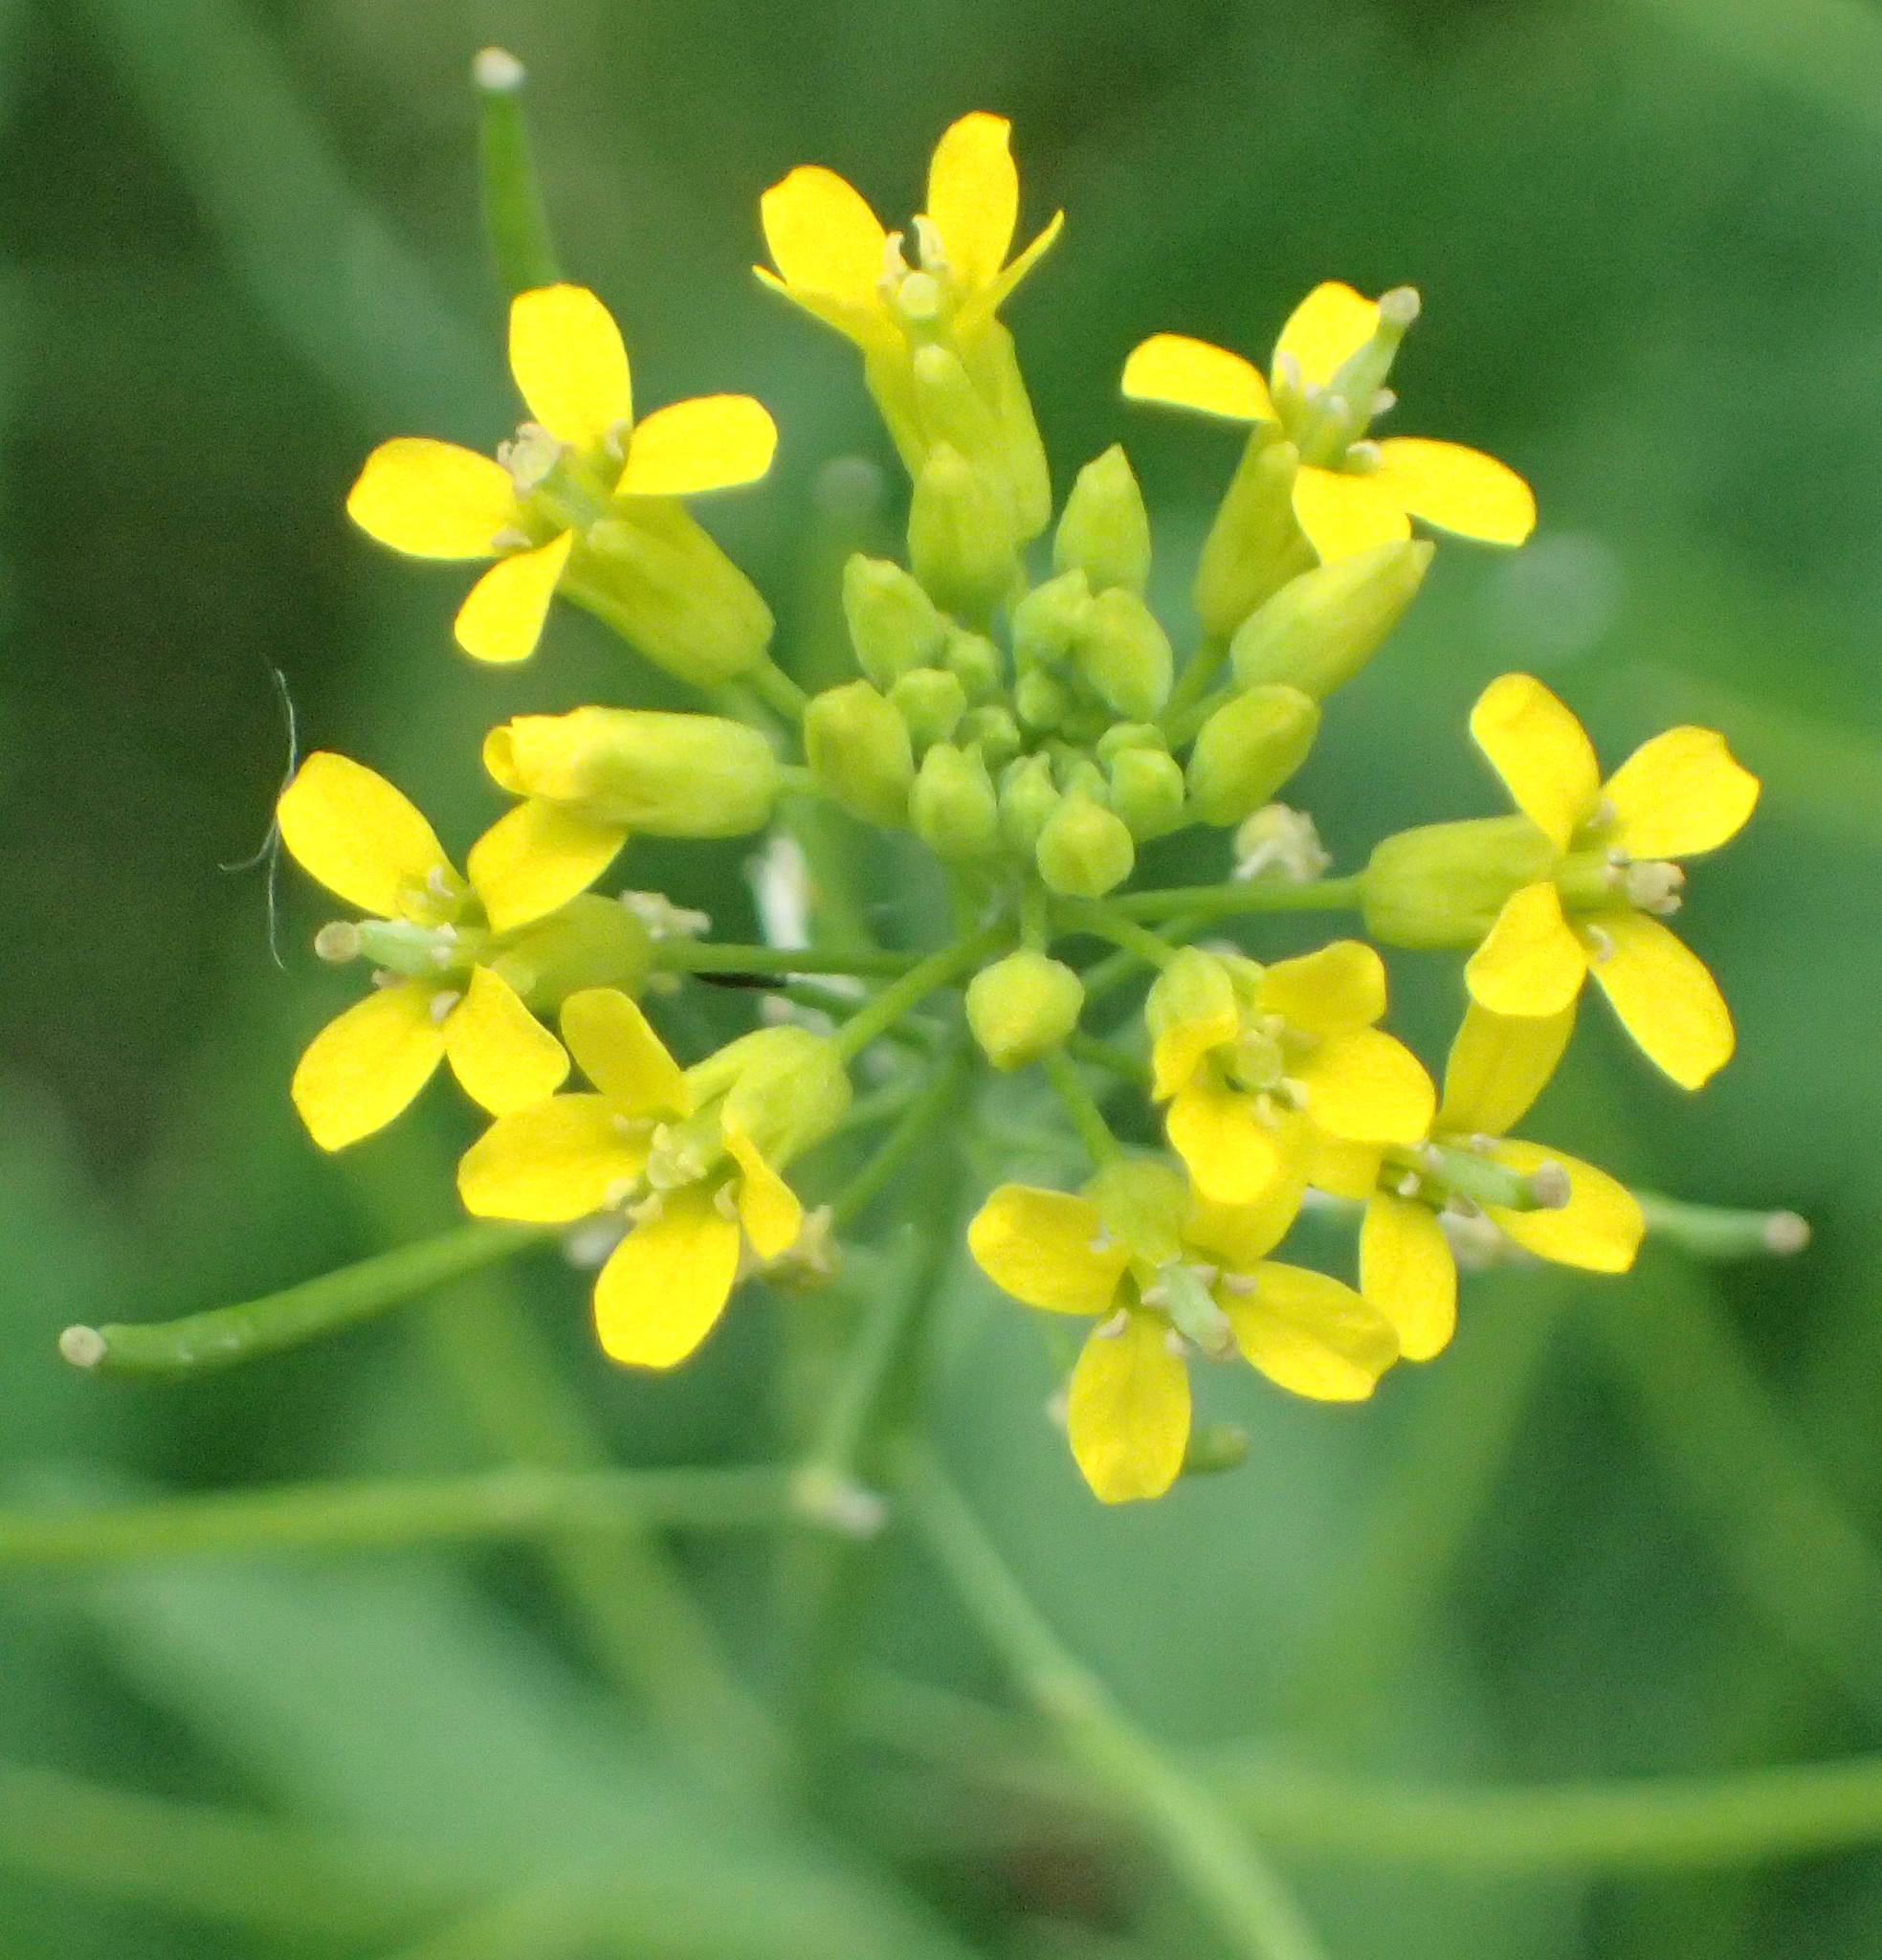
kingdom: Plantae
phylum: Tracheophyta
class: Magnoliopsida
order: Brassicales
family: Brassicaceae
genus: Erysimum
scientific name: Erysimum cheiranthoides
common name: Treacle mustard
